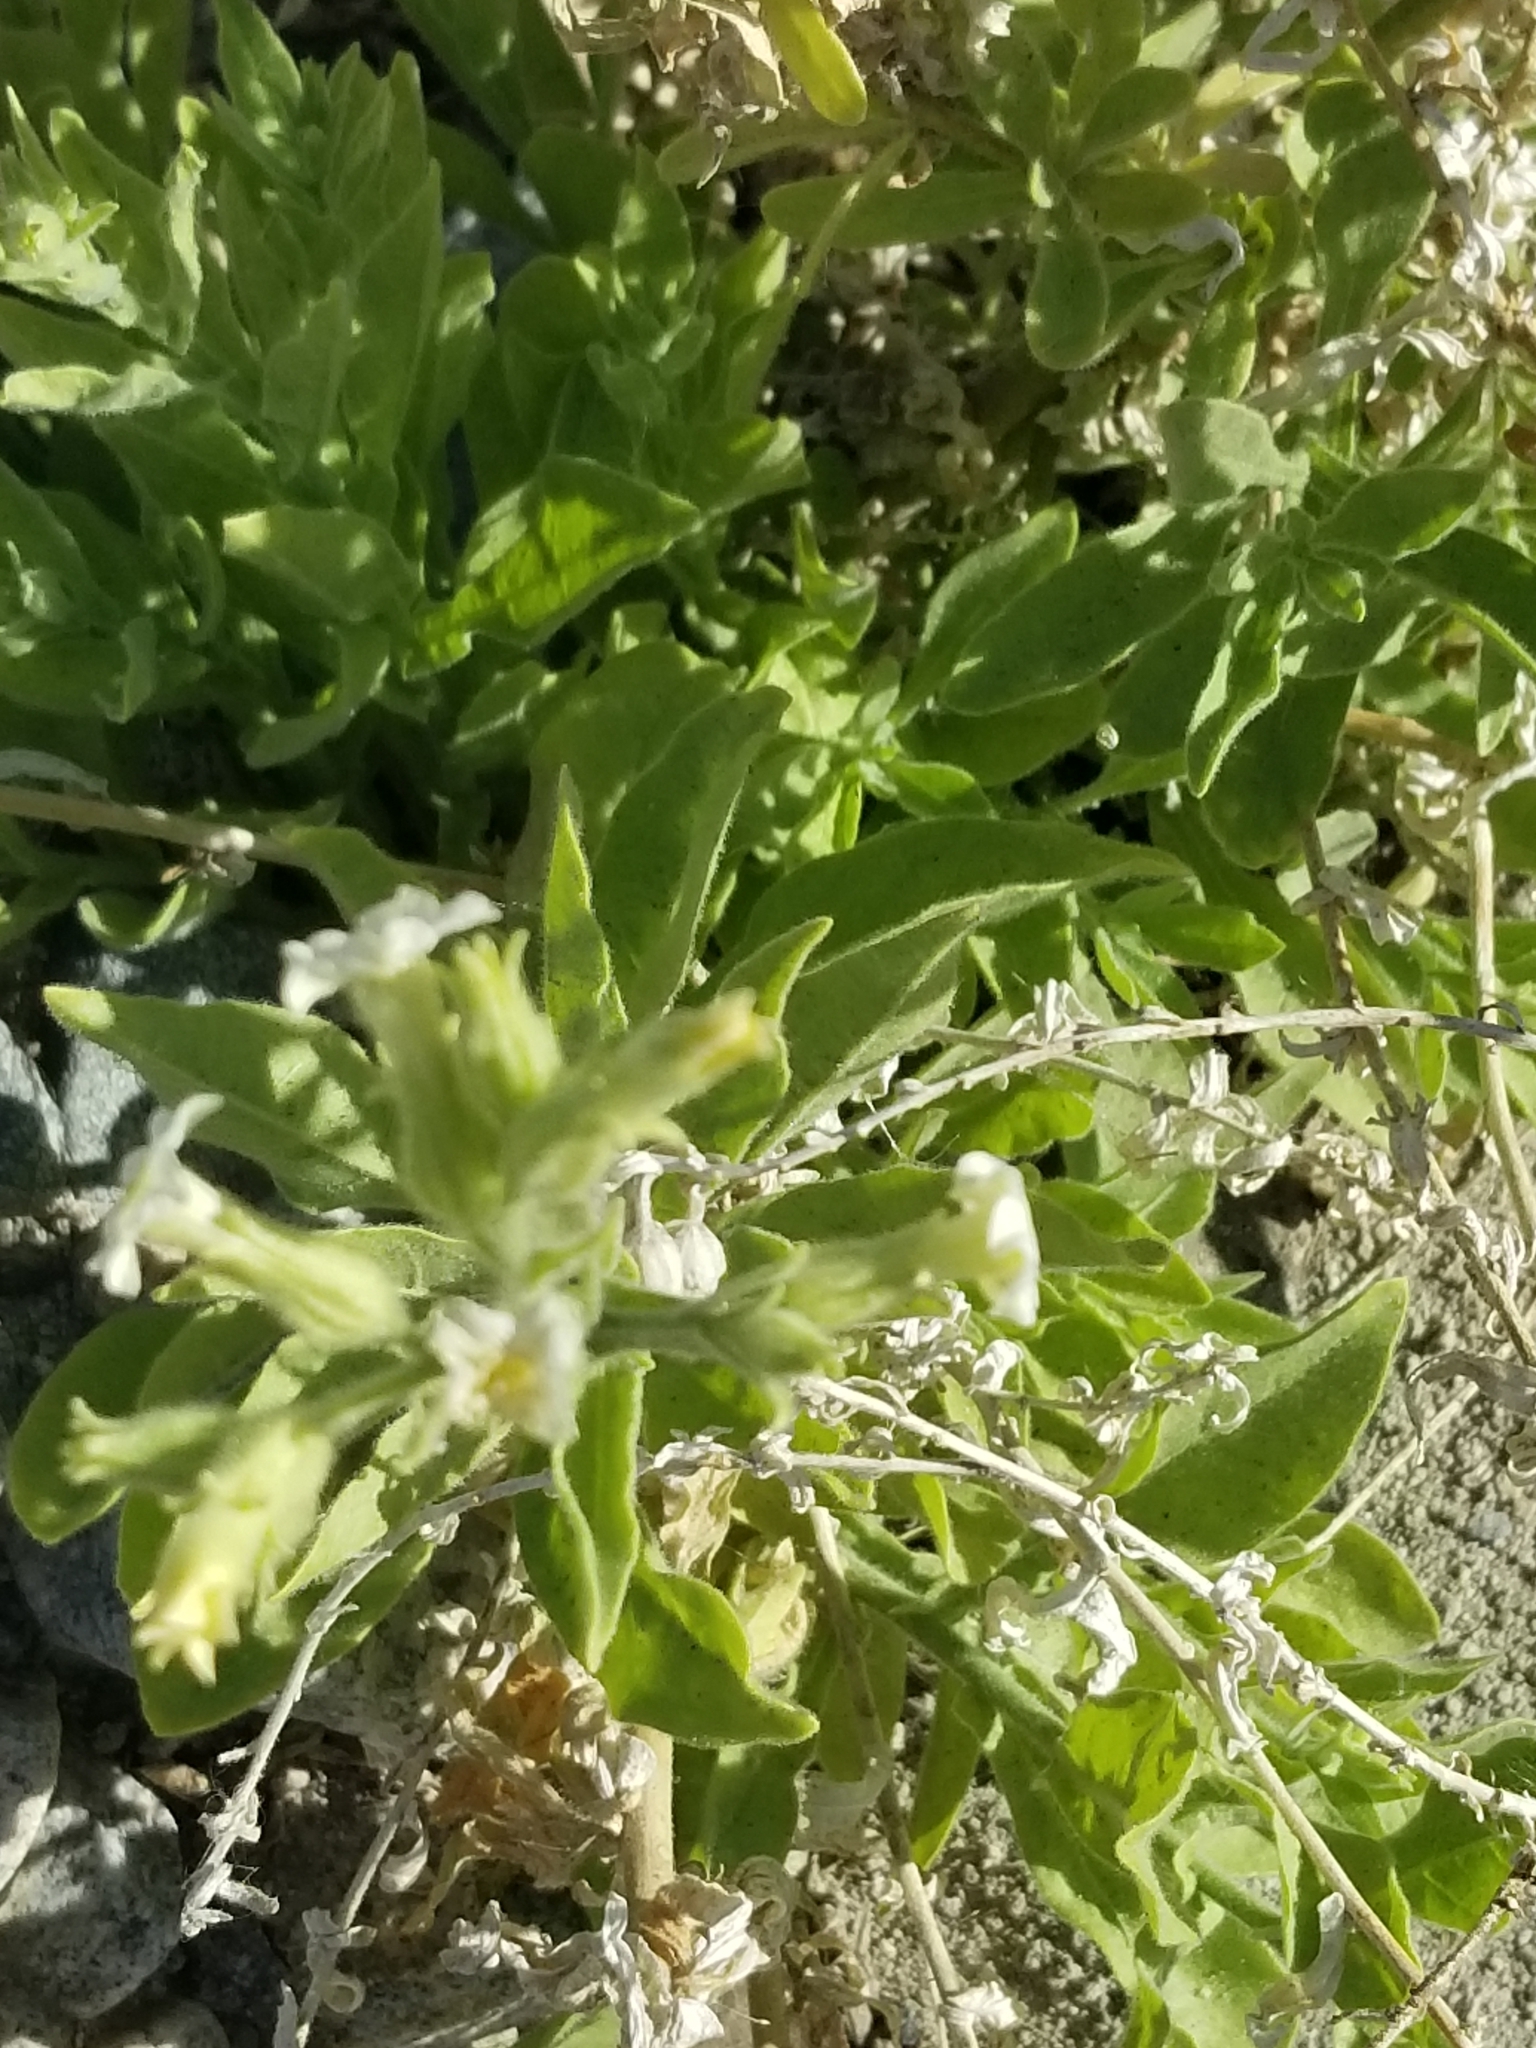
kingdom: Plantae
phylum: Tracheophyta
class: Magnoliopsida
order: Solanales
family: Solanaceae
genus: Nicotiana
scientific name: Nicotiana obtusifolia
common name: Desert tobacco
